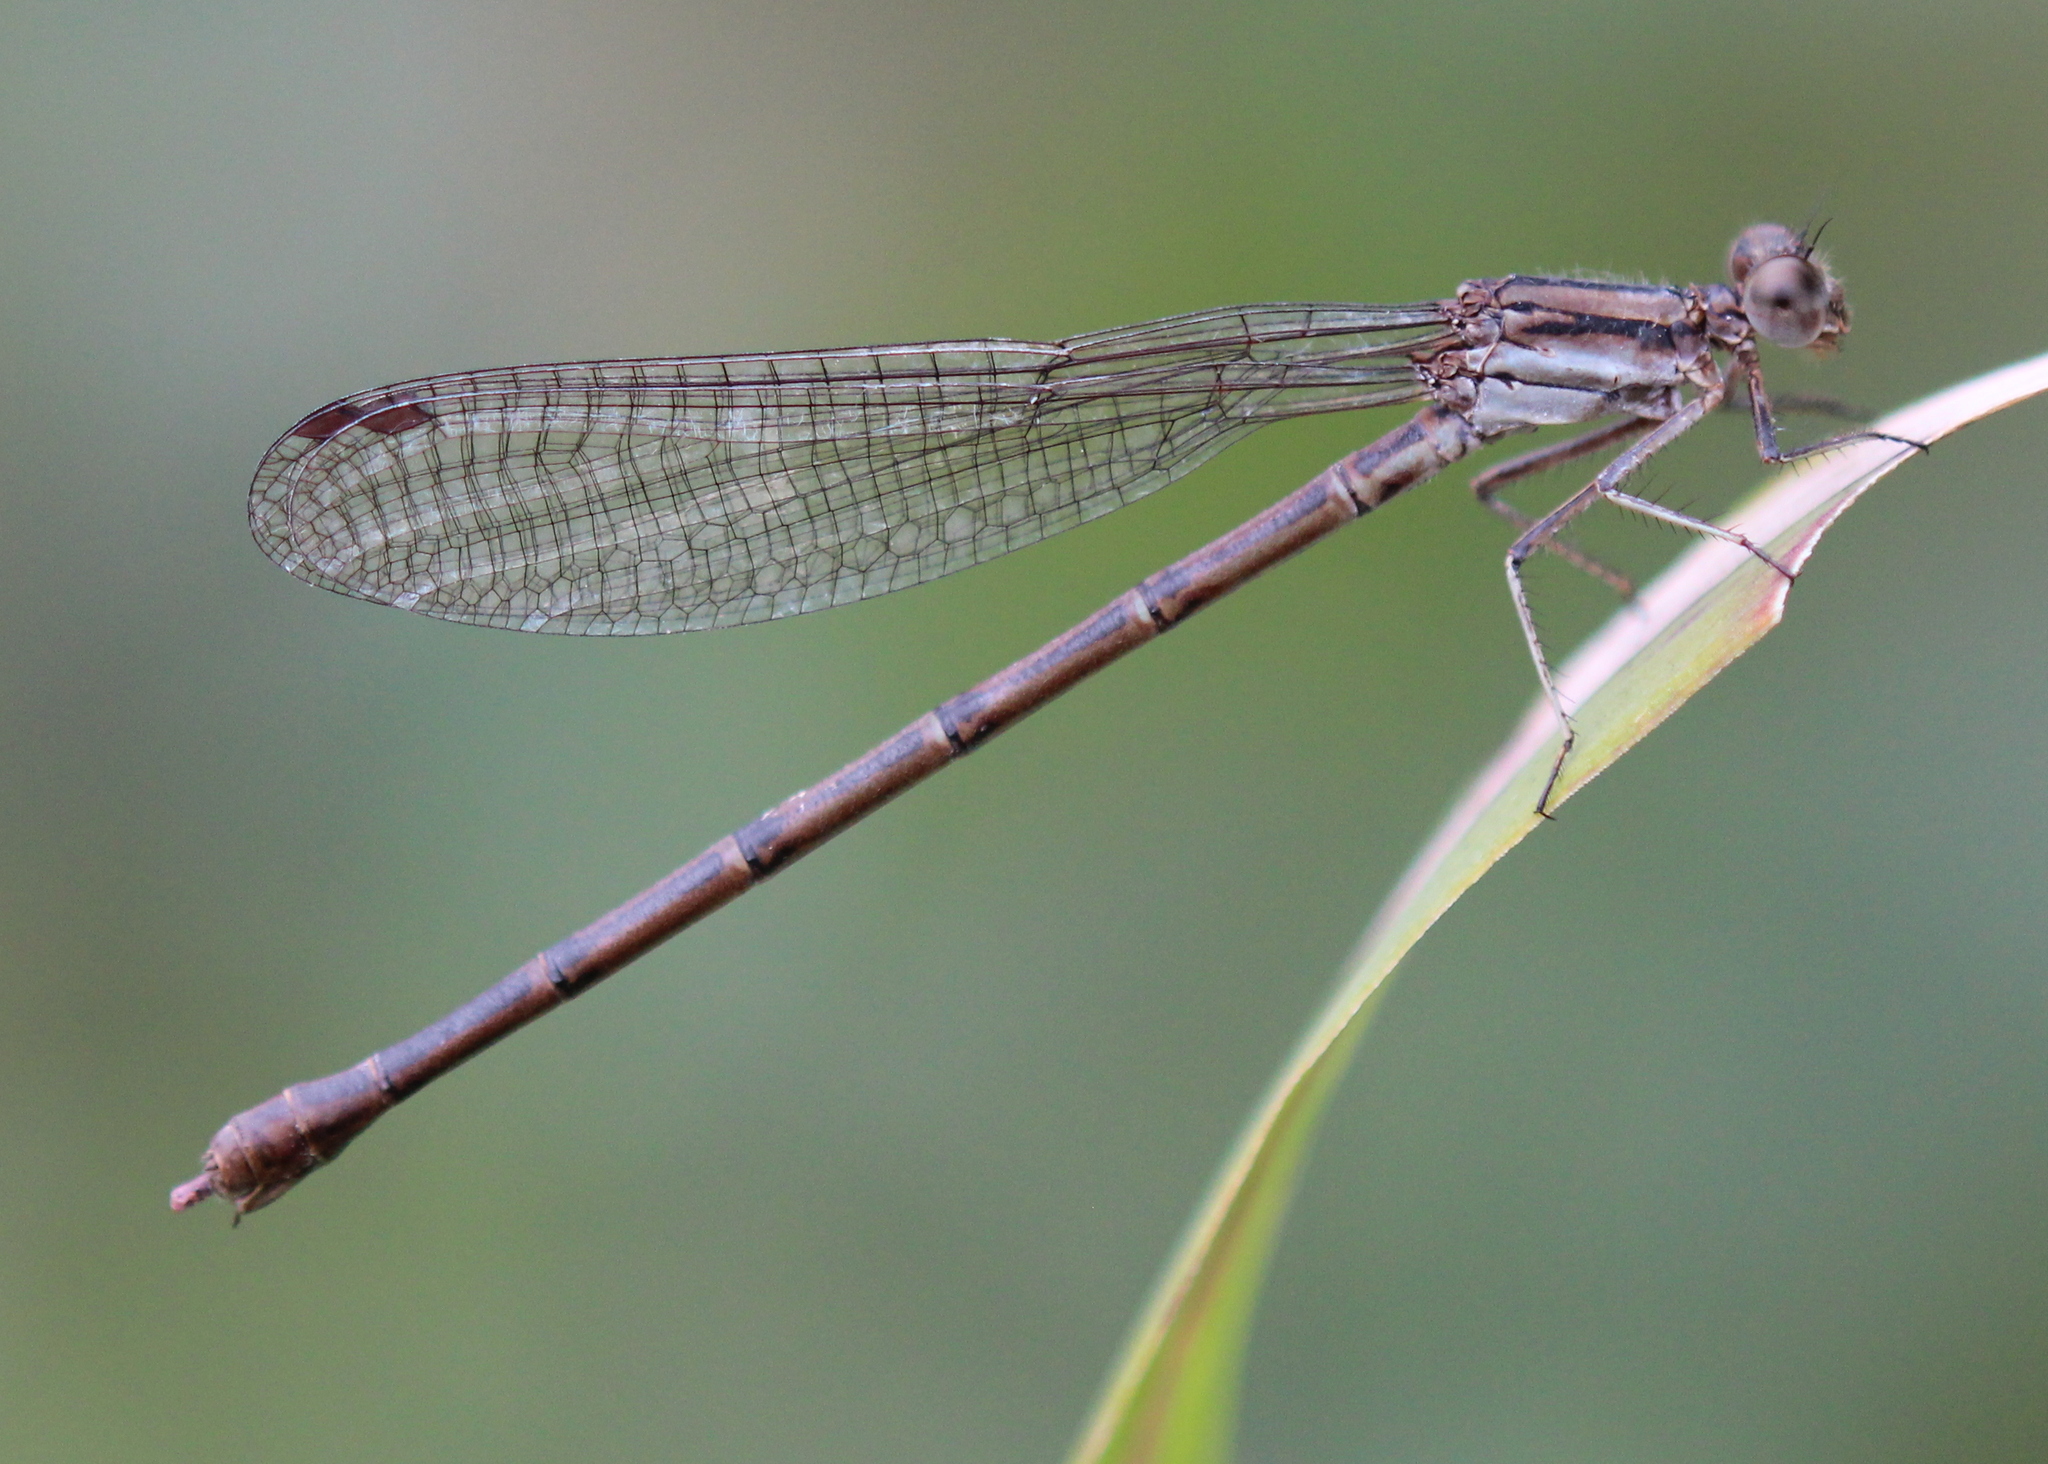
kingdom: Animalia
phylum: Arthropoda
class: Insecta
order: Odonata
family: Coenagrionidae
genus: Argia
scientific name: Argia fumipennis
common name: Variable dancer
